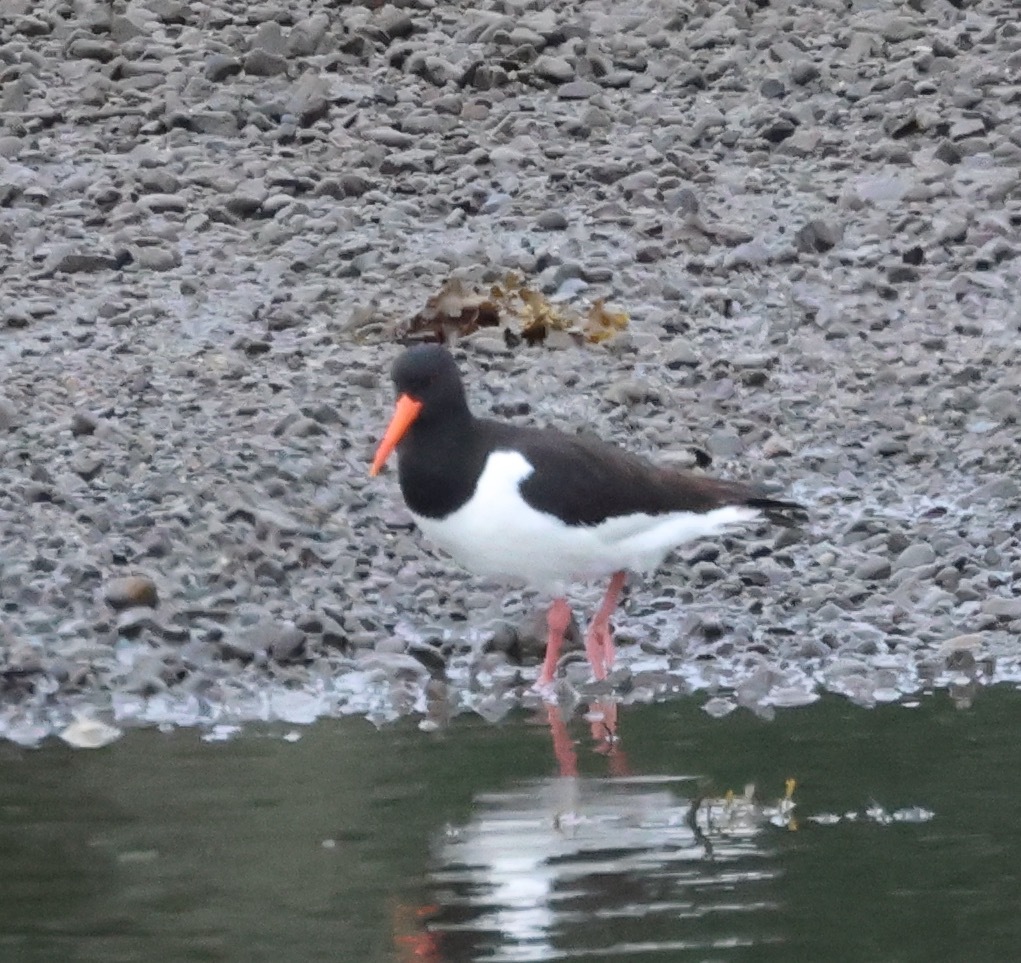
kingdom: Animalia
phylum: Chordata
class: Aves
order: Charadriiformes
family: Haematopodidae
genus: Haematopus
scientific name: Haematopus ostralegus
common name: Eurasian oystercatcher
